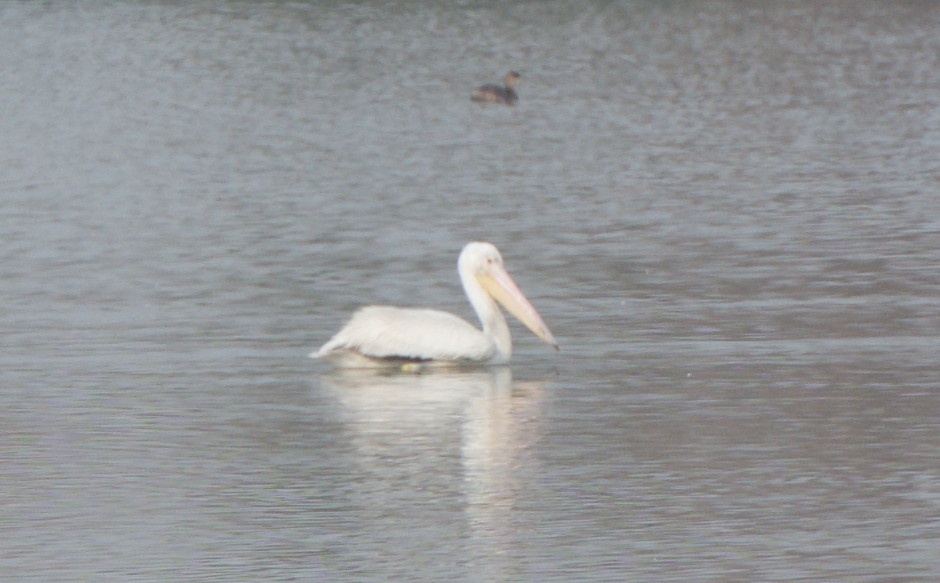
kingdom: Animalia
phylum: Chordata
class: Aves
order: Pelecaniformes
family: Pelecanidae
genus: Pelecanus
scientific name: Pelecanus erythrorhynchos
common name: American white pelican
